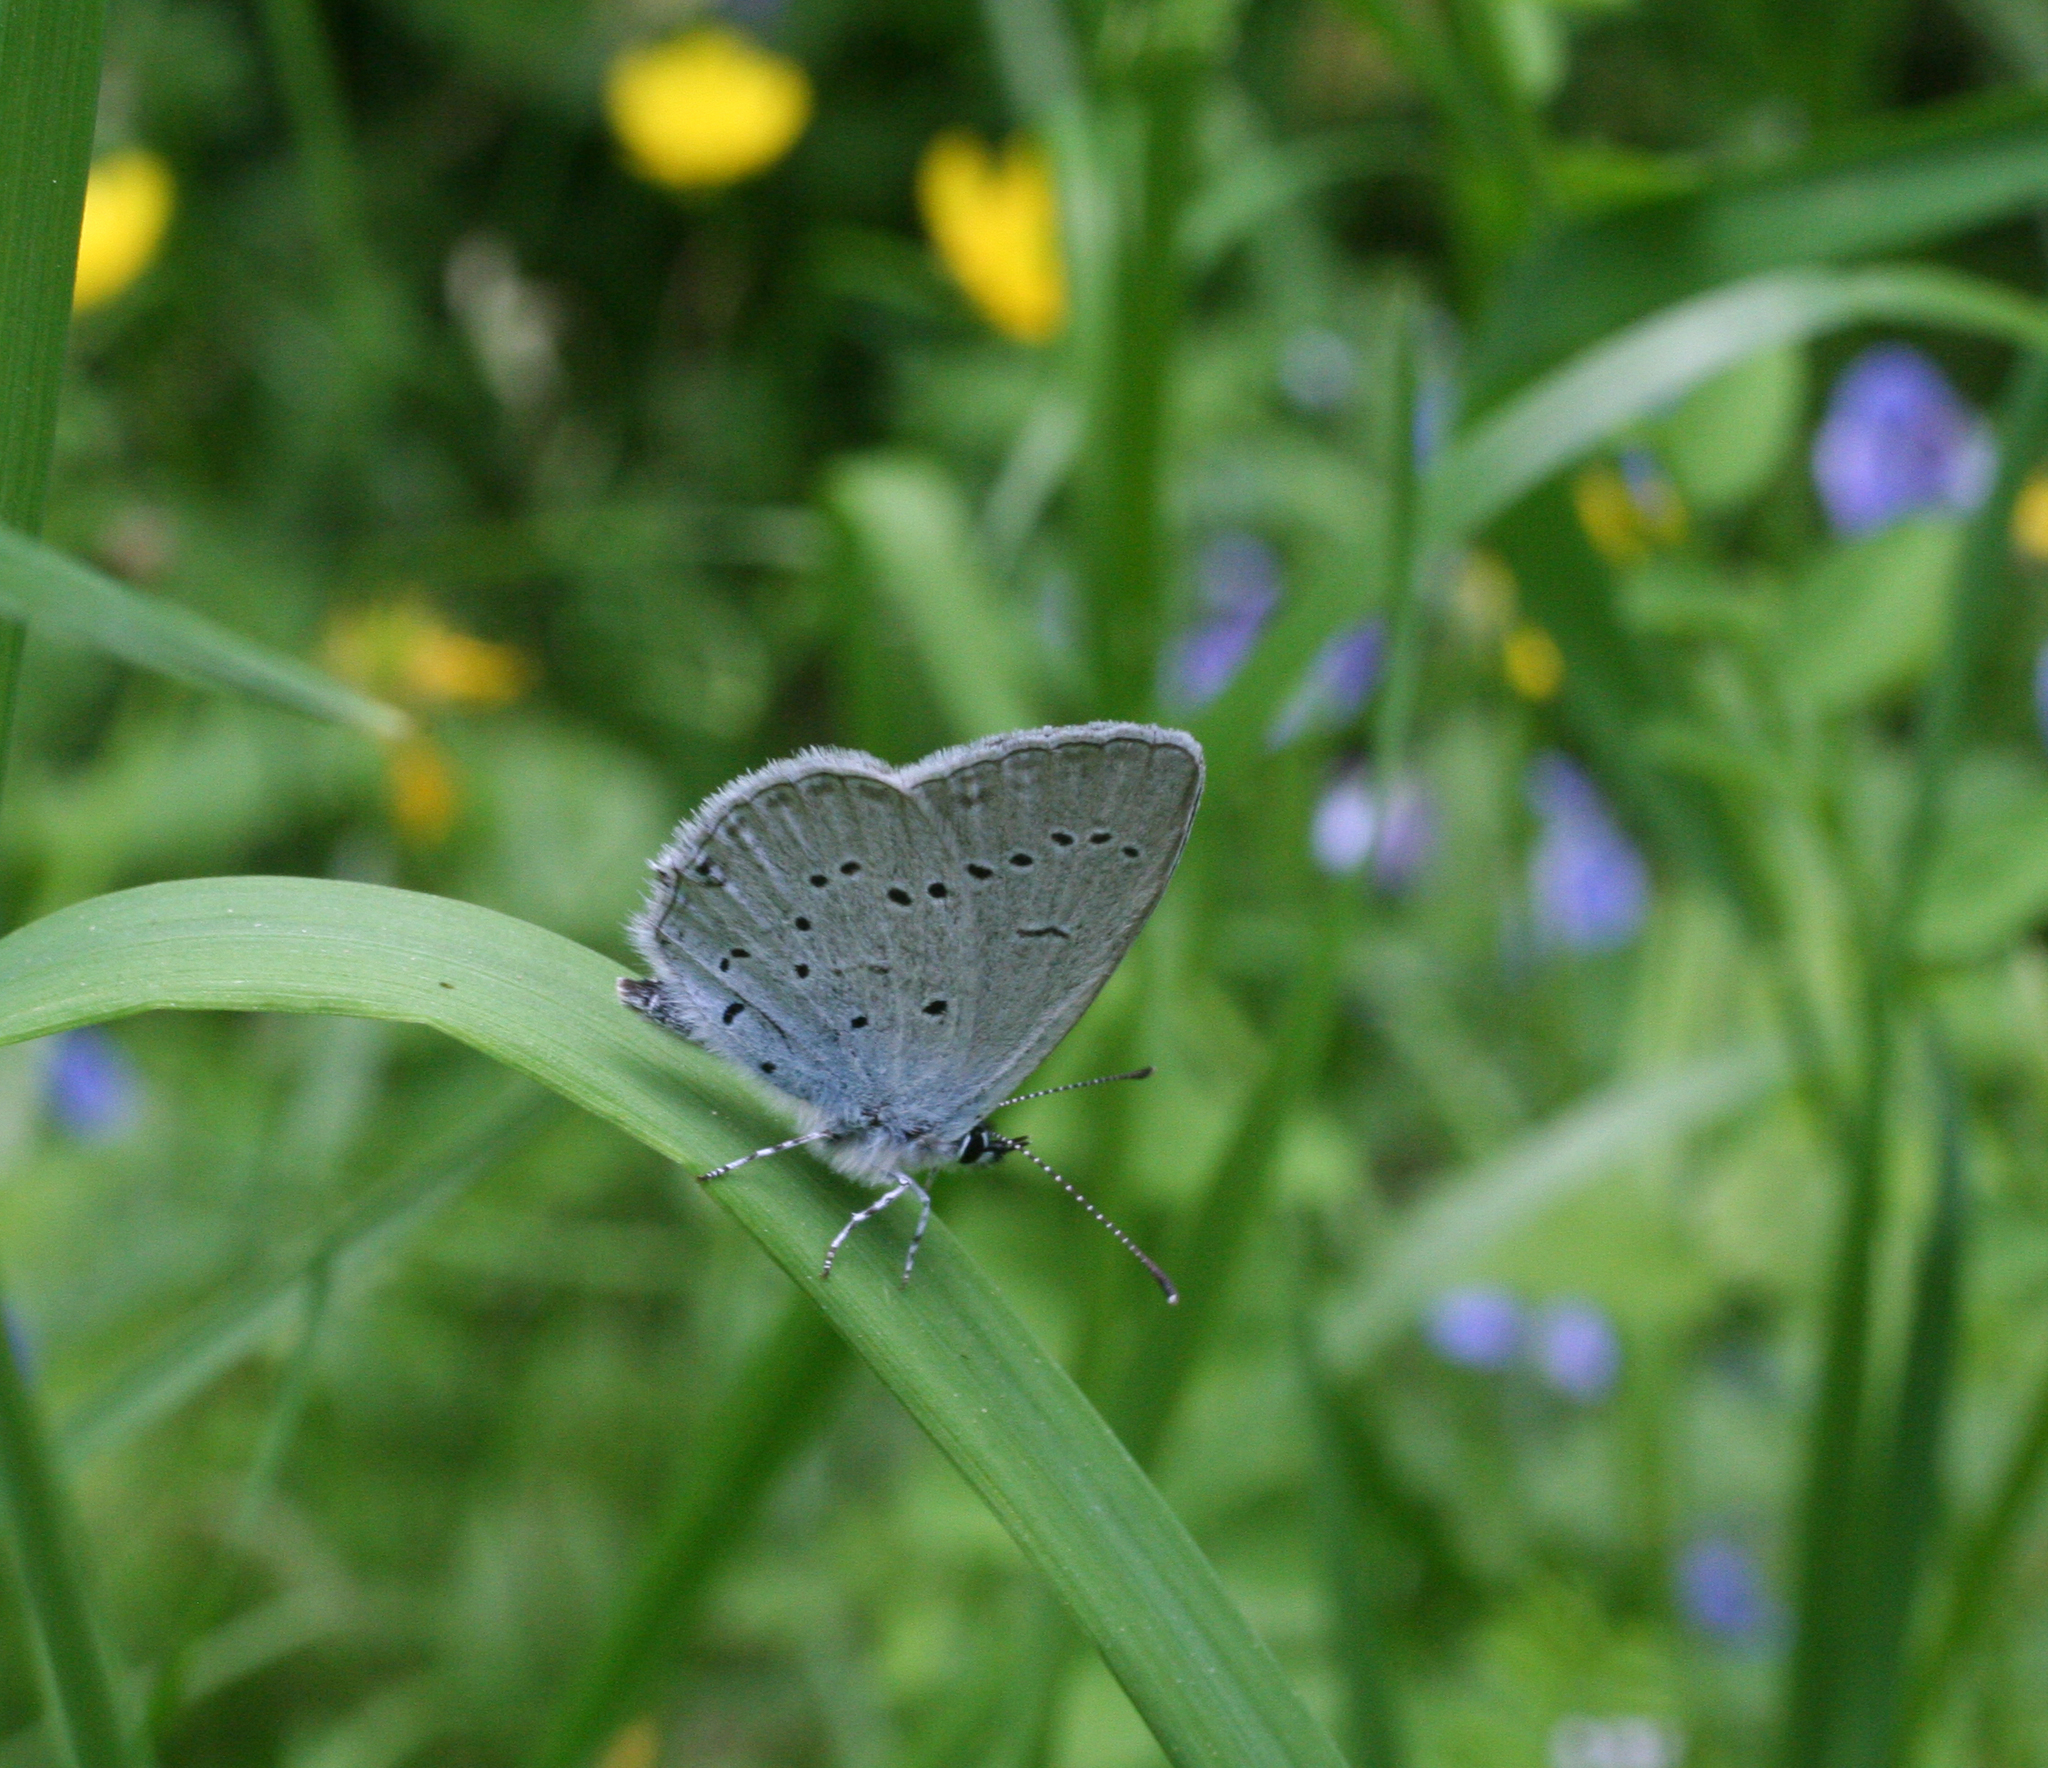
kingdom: Animalia
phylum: Arthropoda
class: Insecta
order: Lepidoptera
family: Lycaenidae
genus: Elkalyce
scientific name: Elkalyce alcetas
